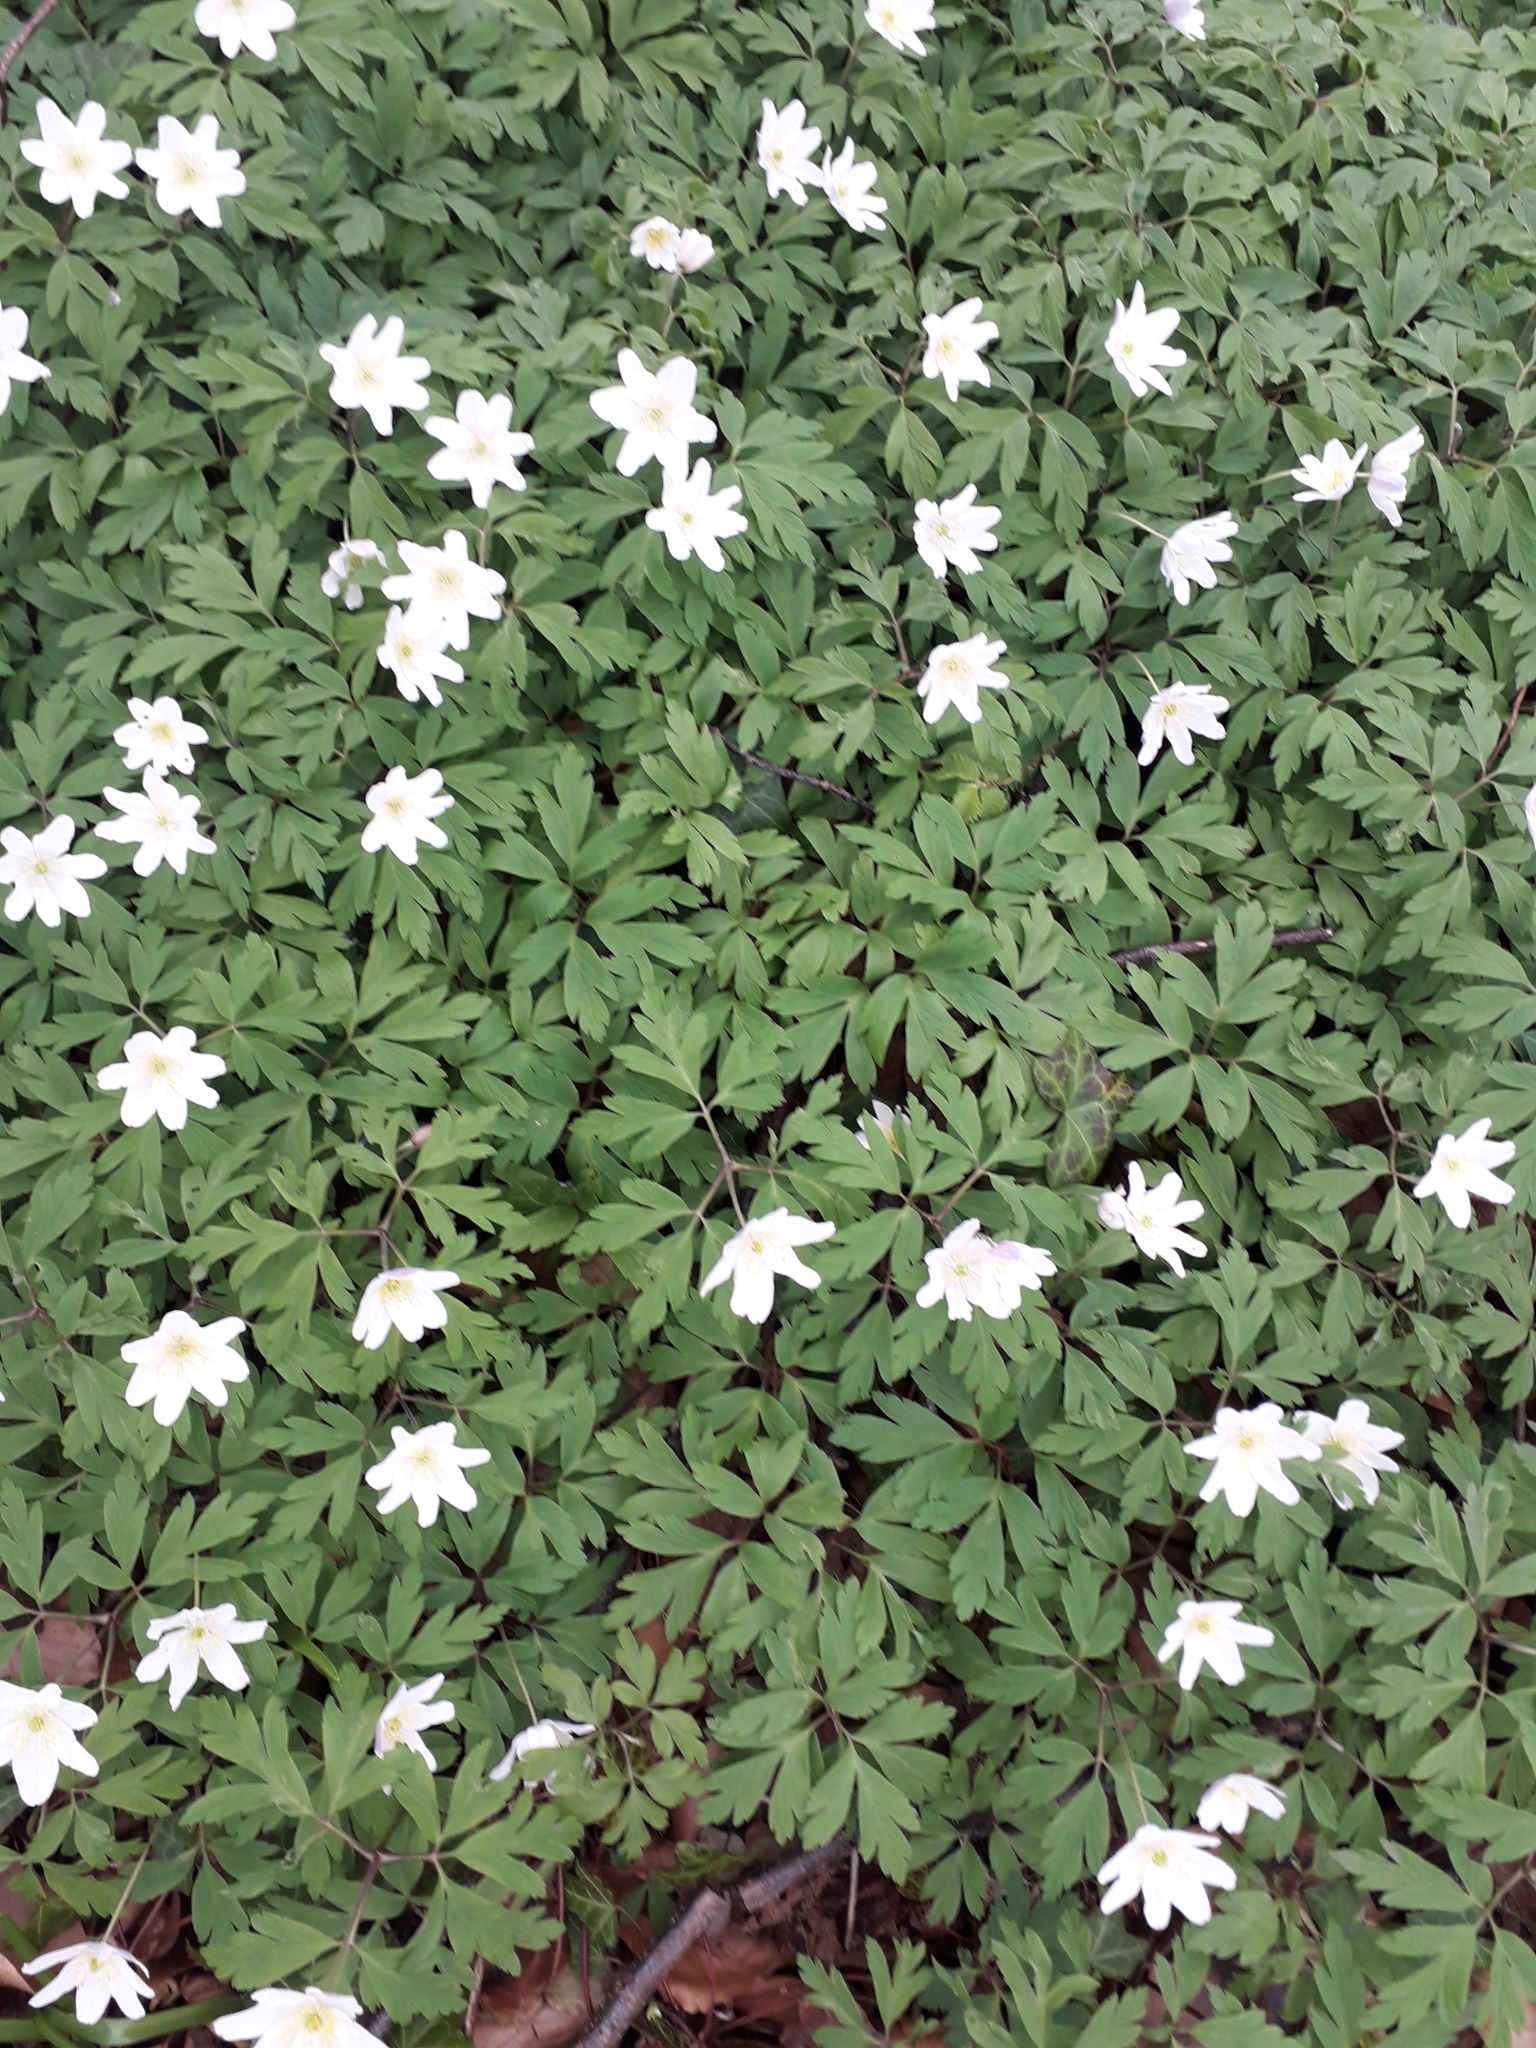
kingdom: Plantae
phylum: Tracheophyta
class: Magnoliopsida
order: Ranunculales
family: Ranunculaceae
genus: Anemone
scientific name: Anemone nemorosa
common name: Wood anemone
